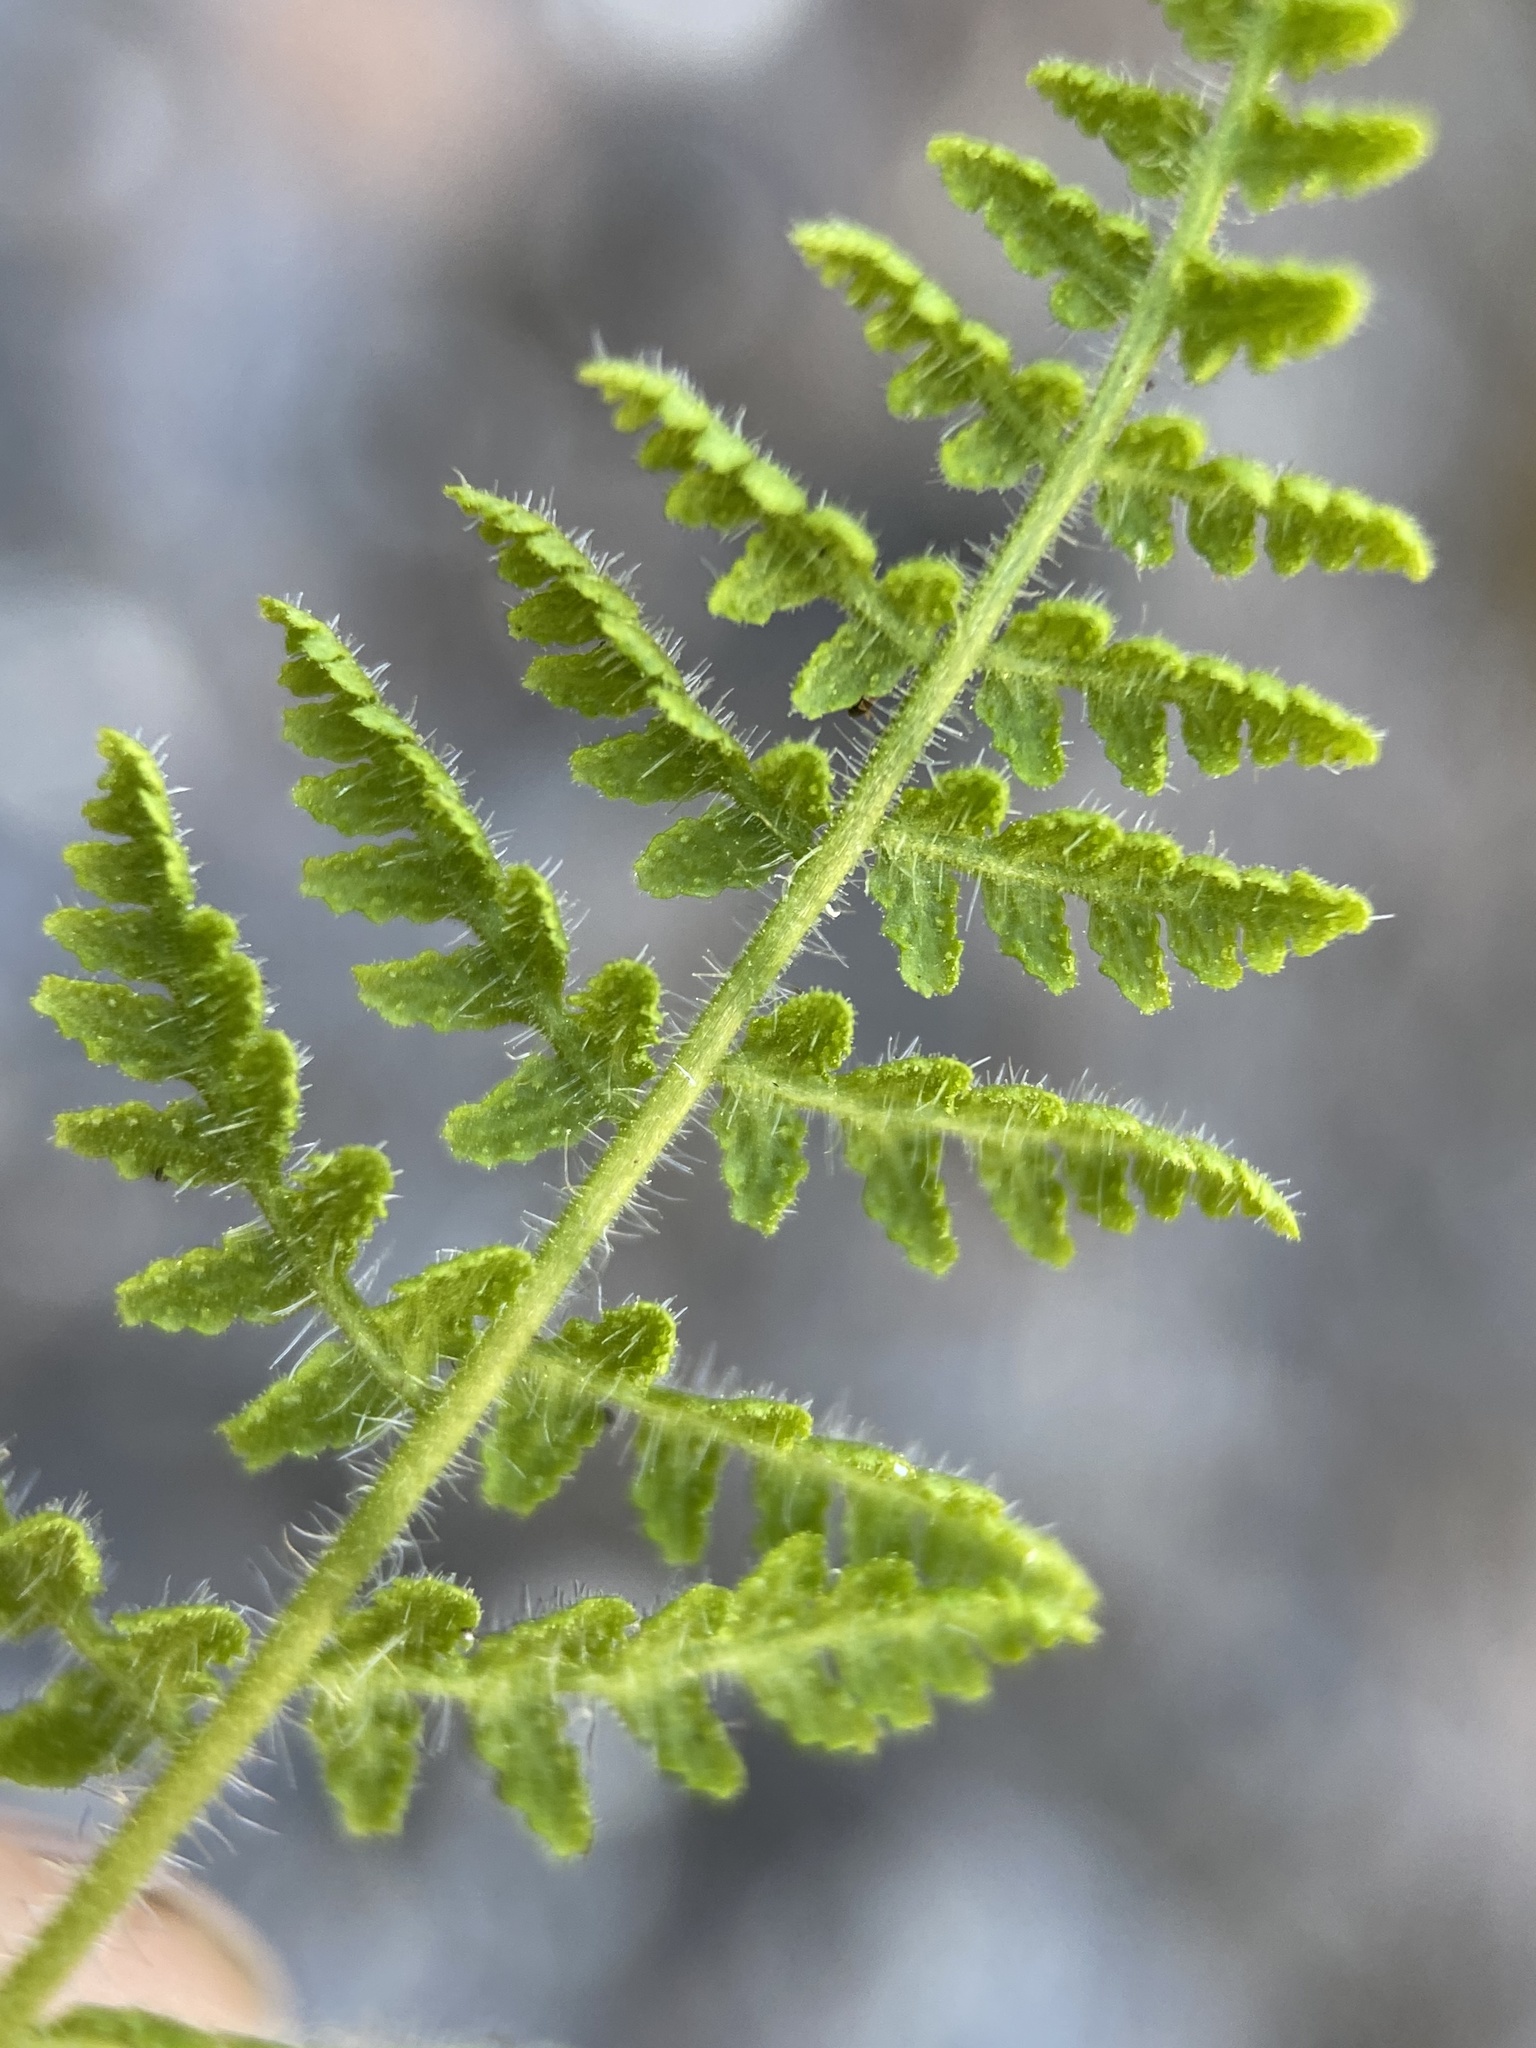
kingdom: Plantae
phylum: Tracheophyta
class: Polypodiopsida
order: Polypodiales
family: Woodsiaceae
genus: Physematium
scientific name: Physematium scopulinum
